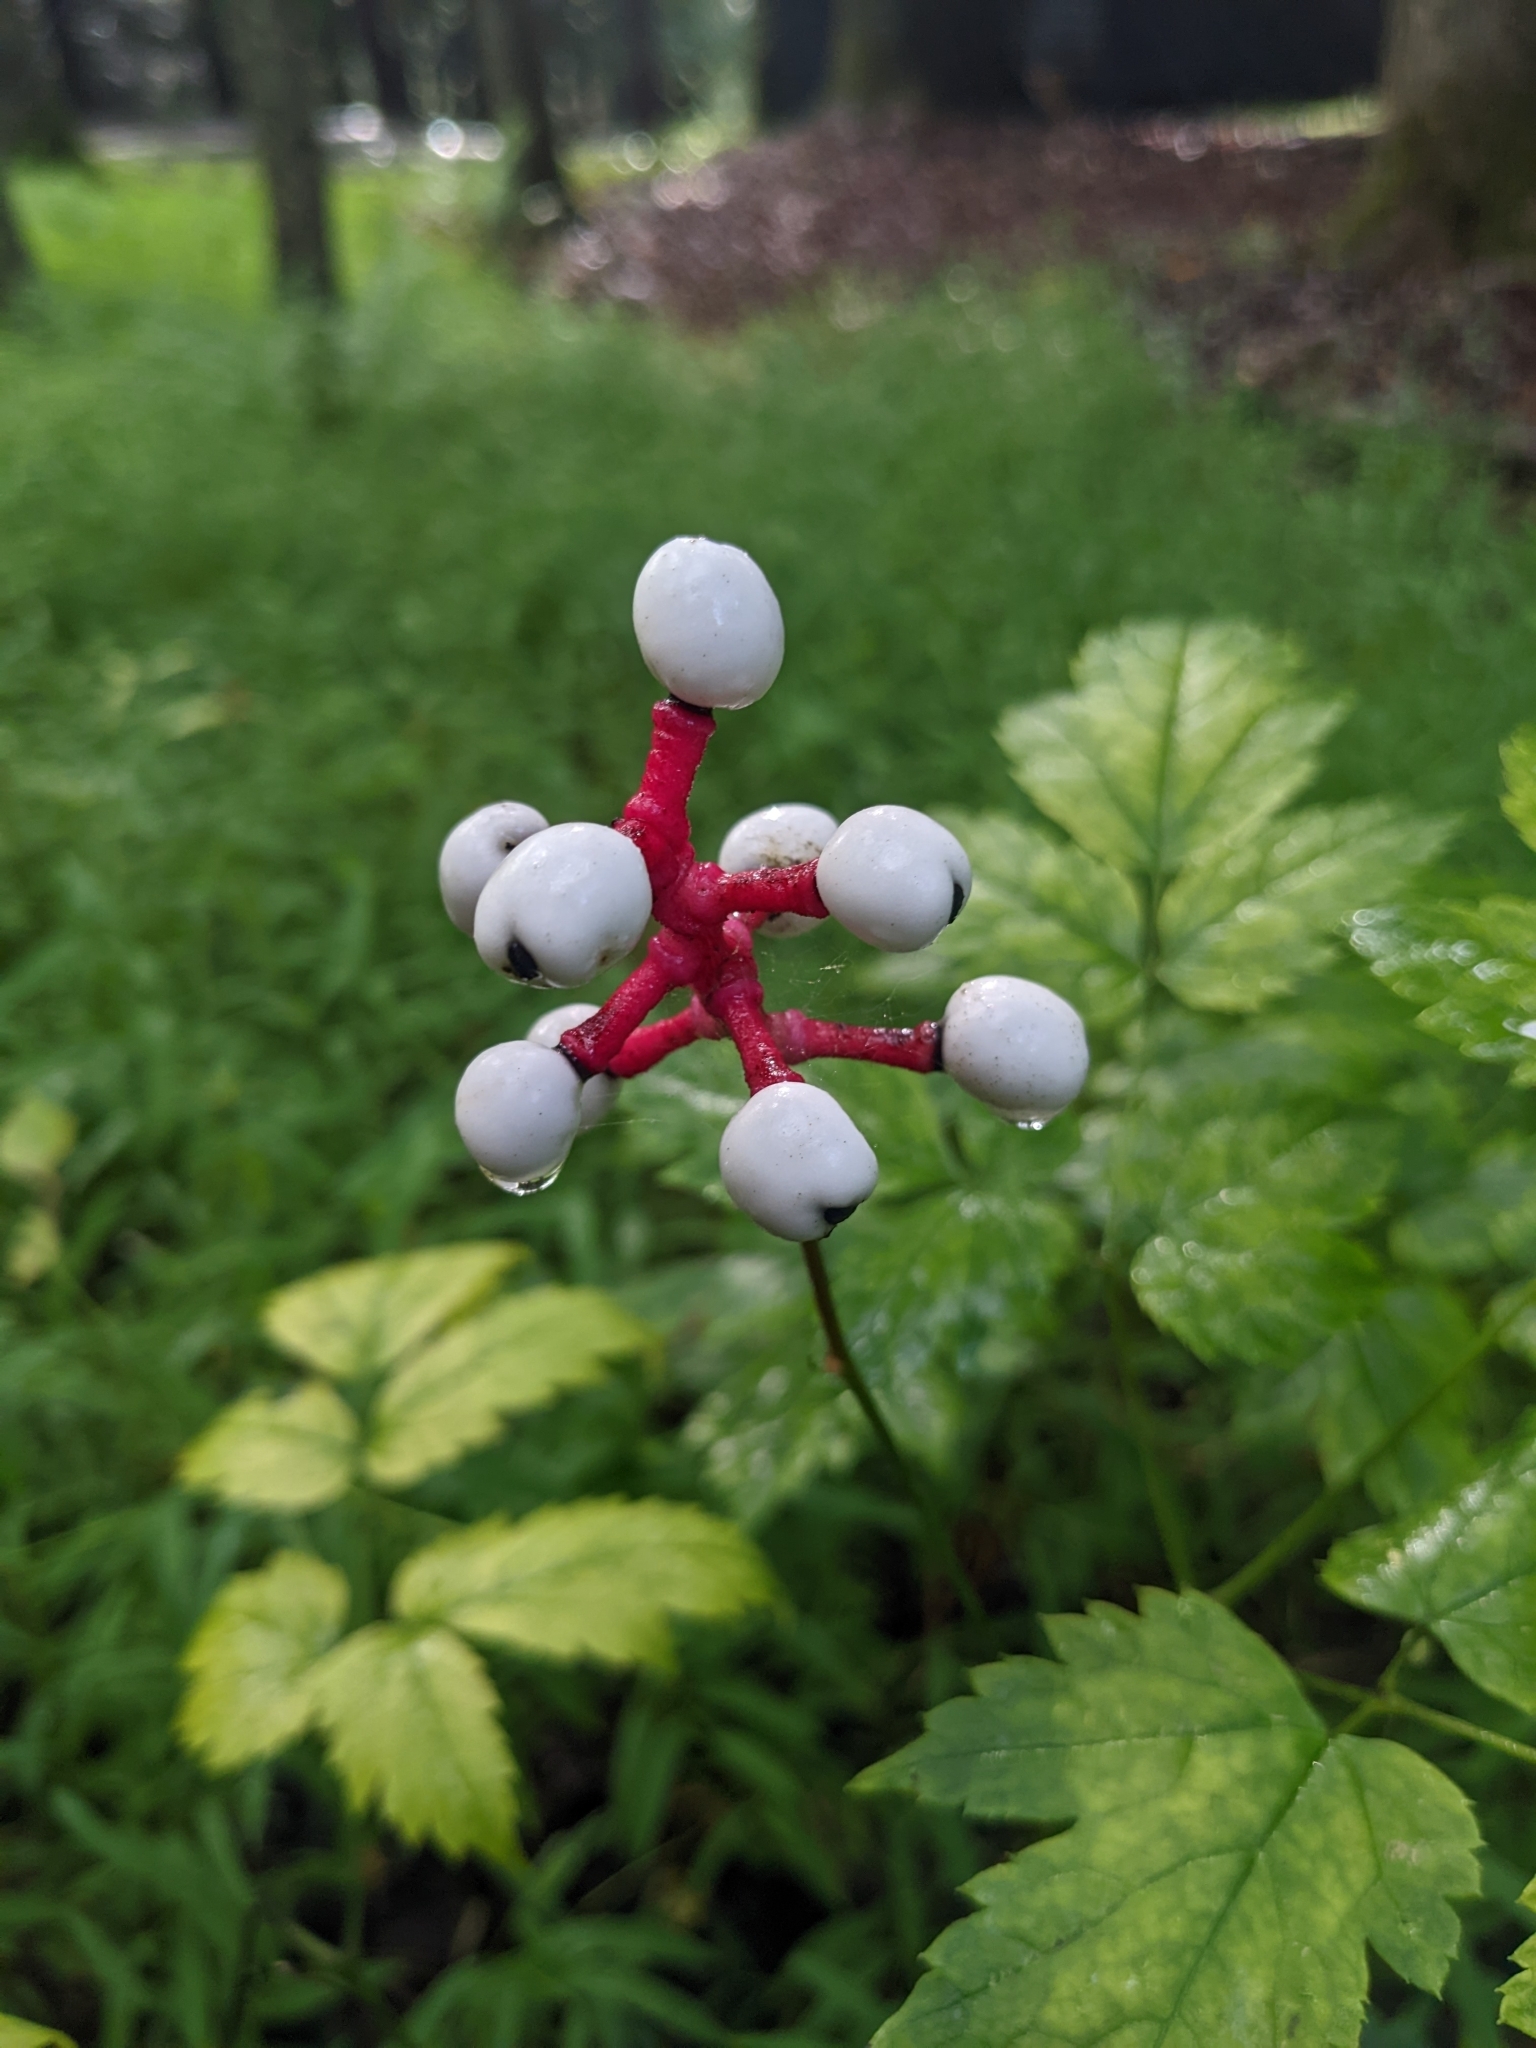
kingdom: Plantae
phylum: Tracheophyta
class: Magnoliopsida
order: Ranunculales
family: Ranunculaceae
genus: Actaea
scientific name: Actaea pachypoda
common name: Doll's-eyes
